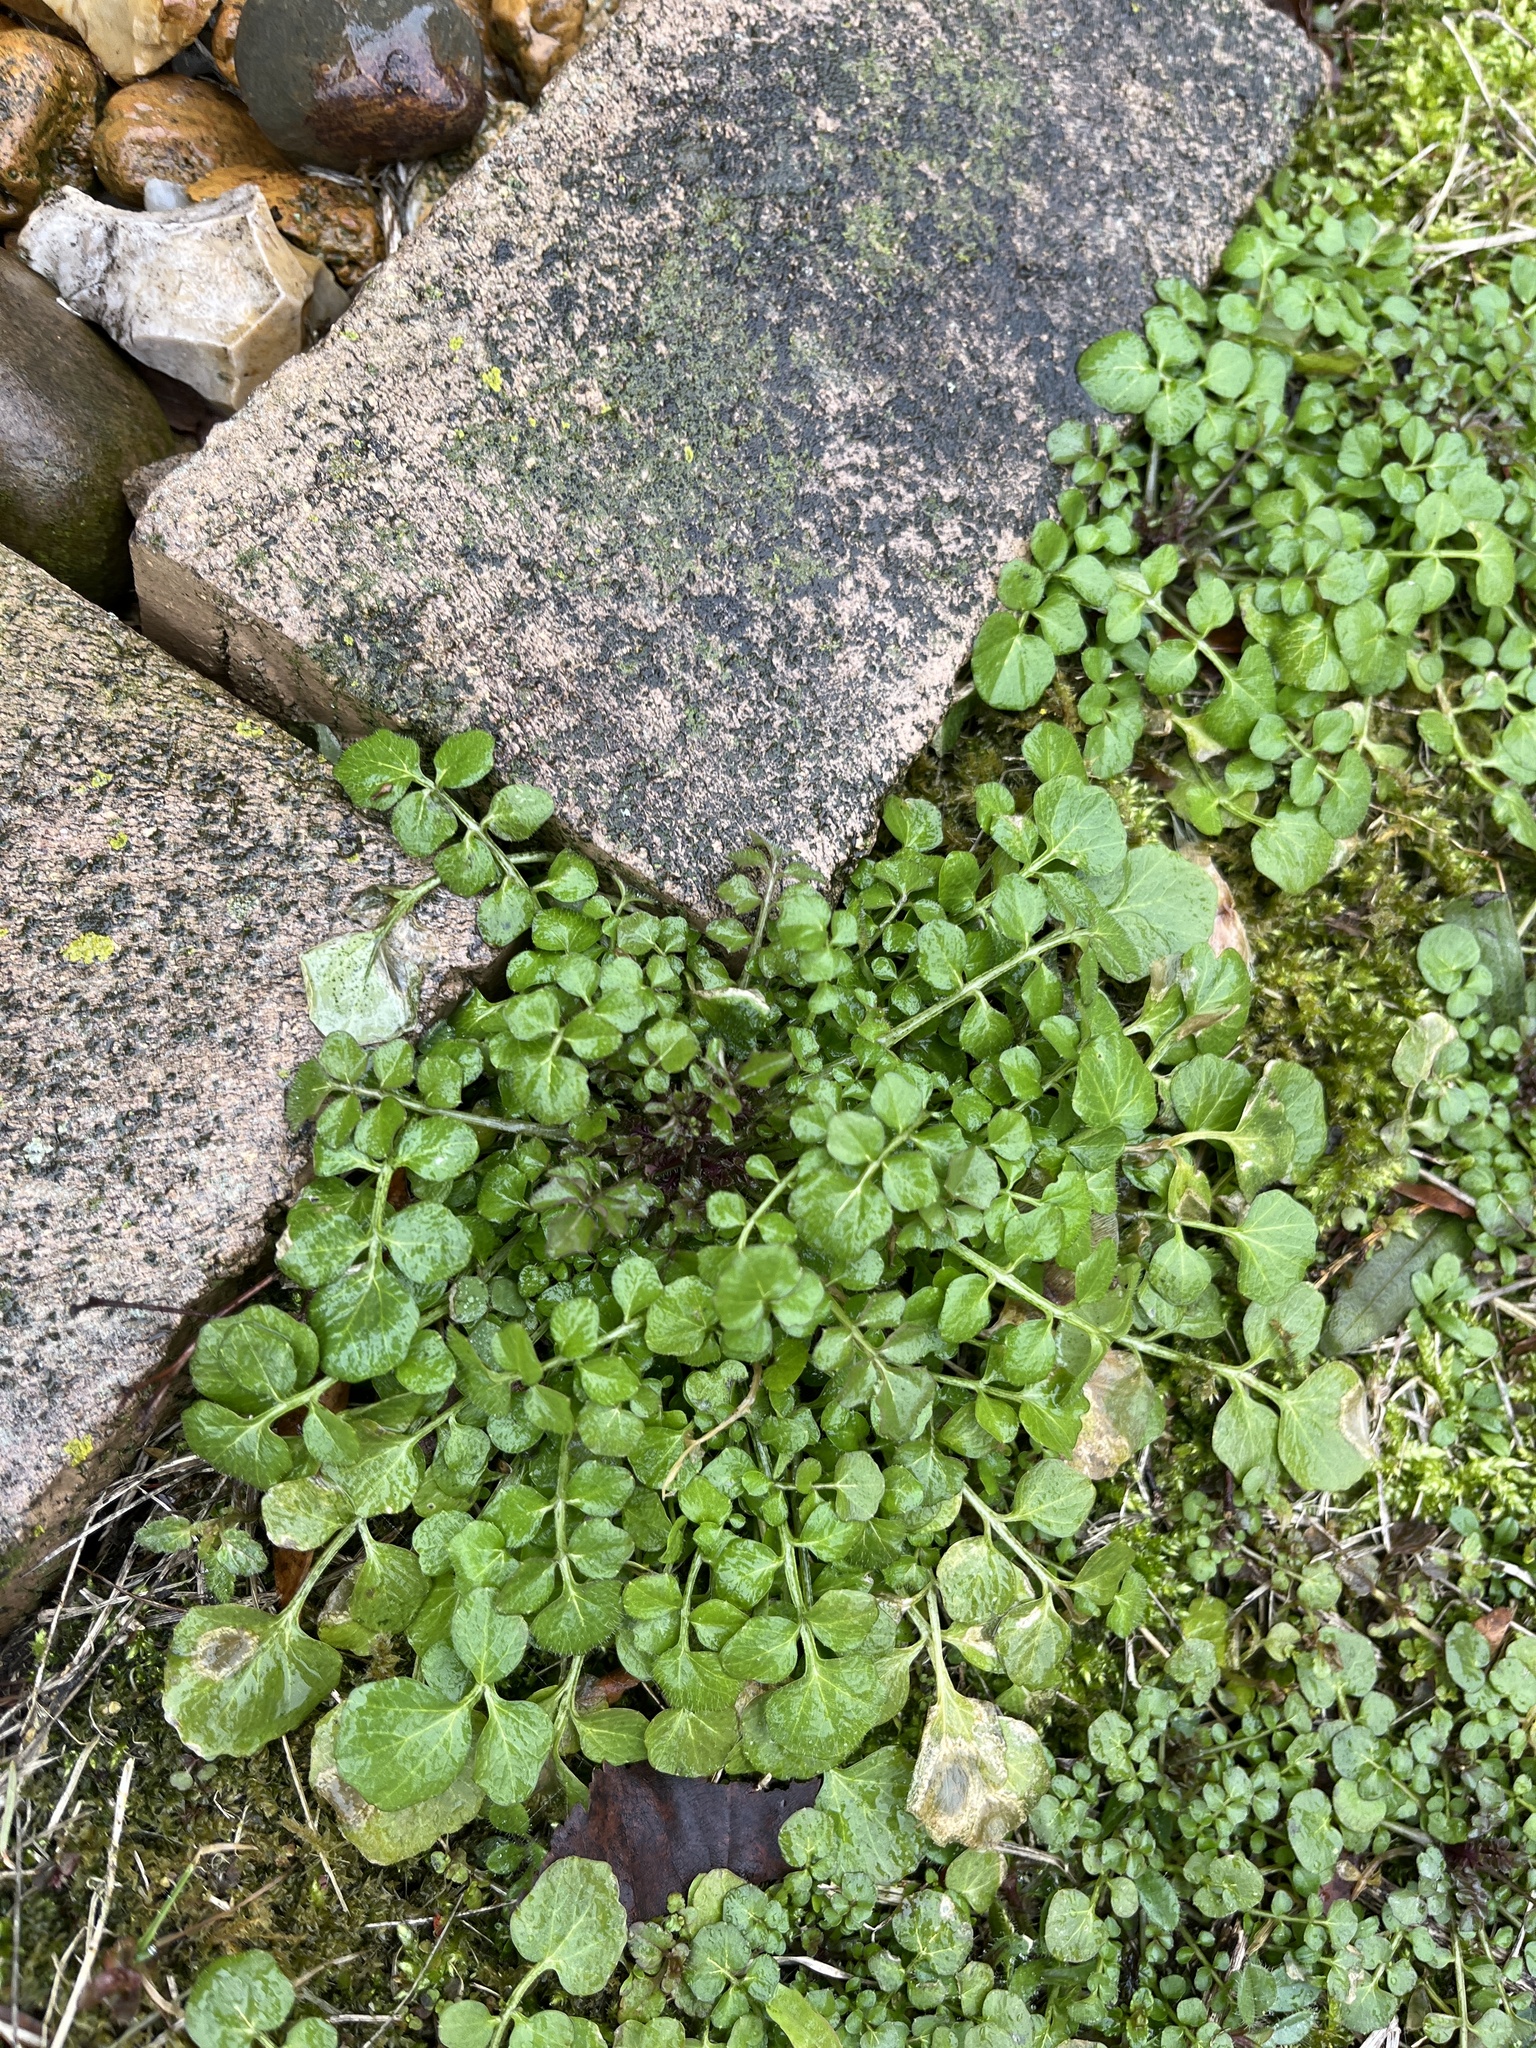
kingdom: Plantae
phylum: Tracheophyta
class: Magnoliopsida
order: Brassicales
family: Brassicaceae
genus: Cardamine
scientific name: Cardamine hirsuta
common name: Hairy bittercress
